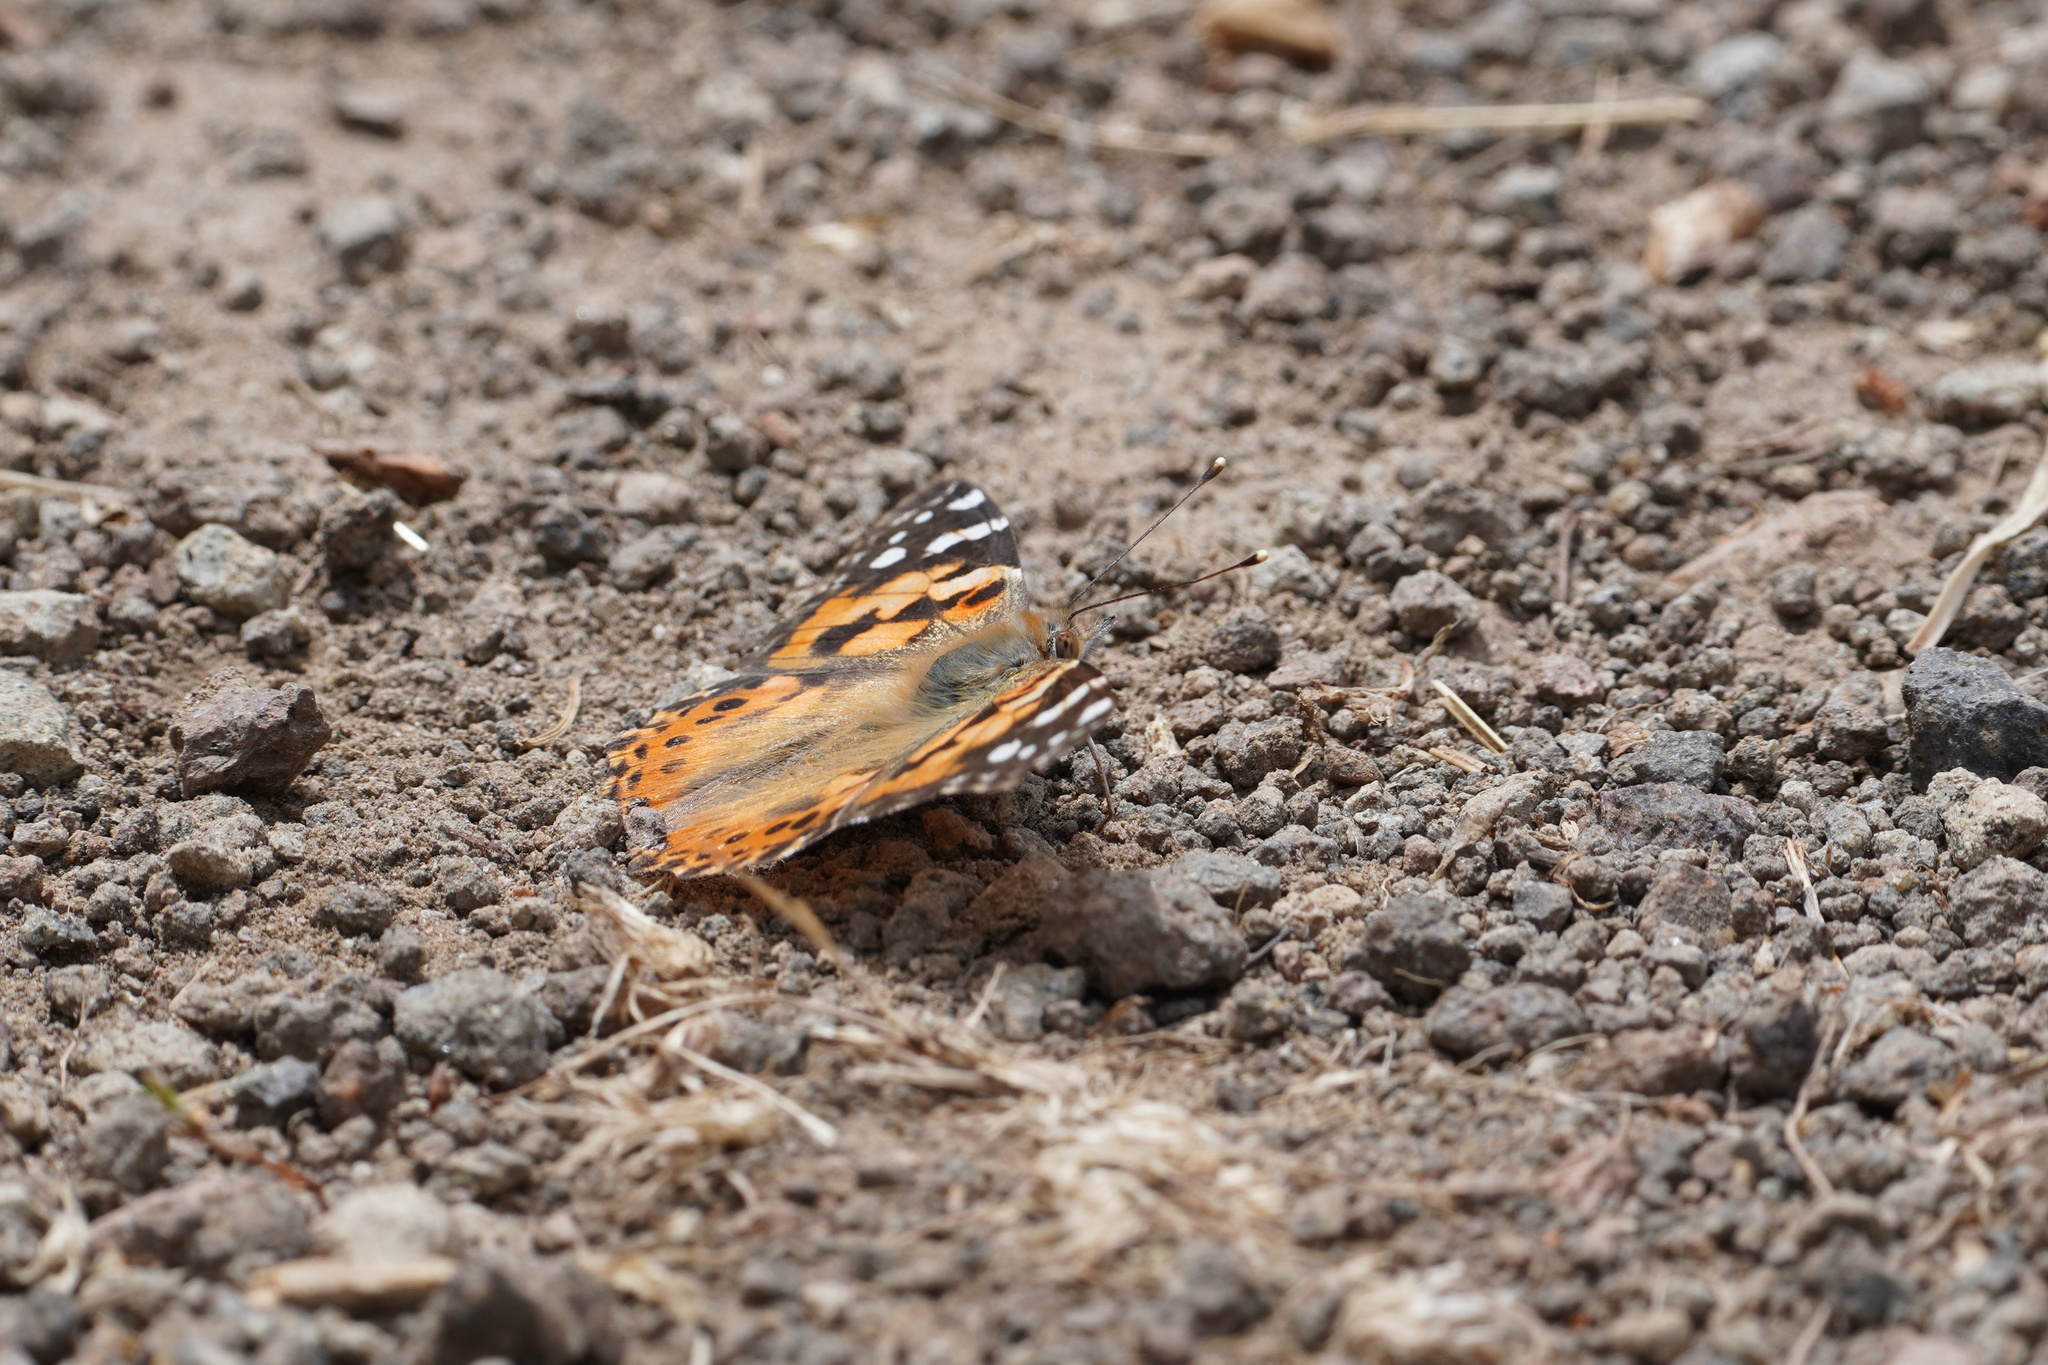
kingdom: Animalia
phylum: Arthropoda
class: Insecta
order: Lepidoptera
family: Nymphalidae
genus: Vanessa
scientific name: Vanessa cardui
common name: Painted lady
